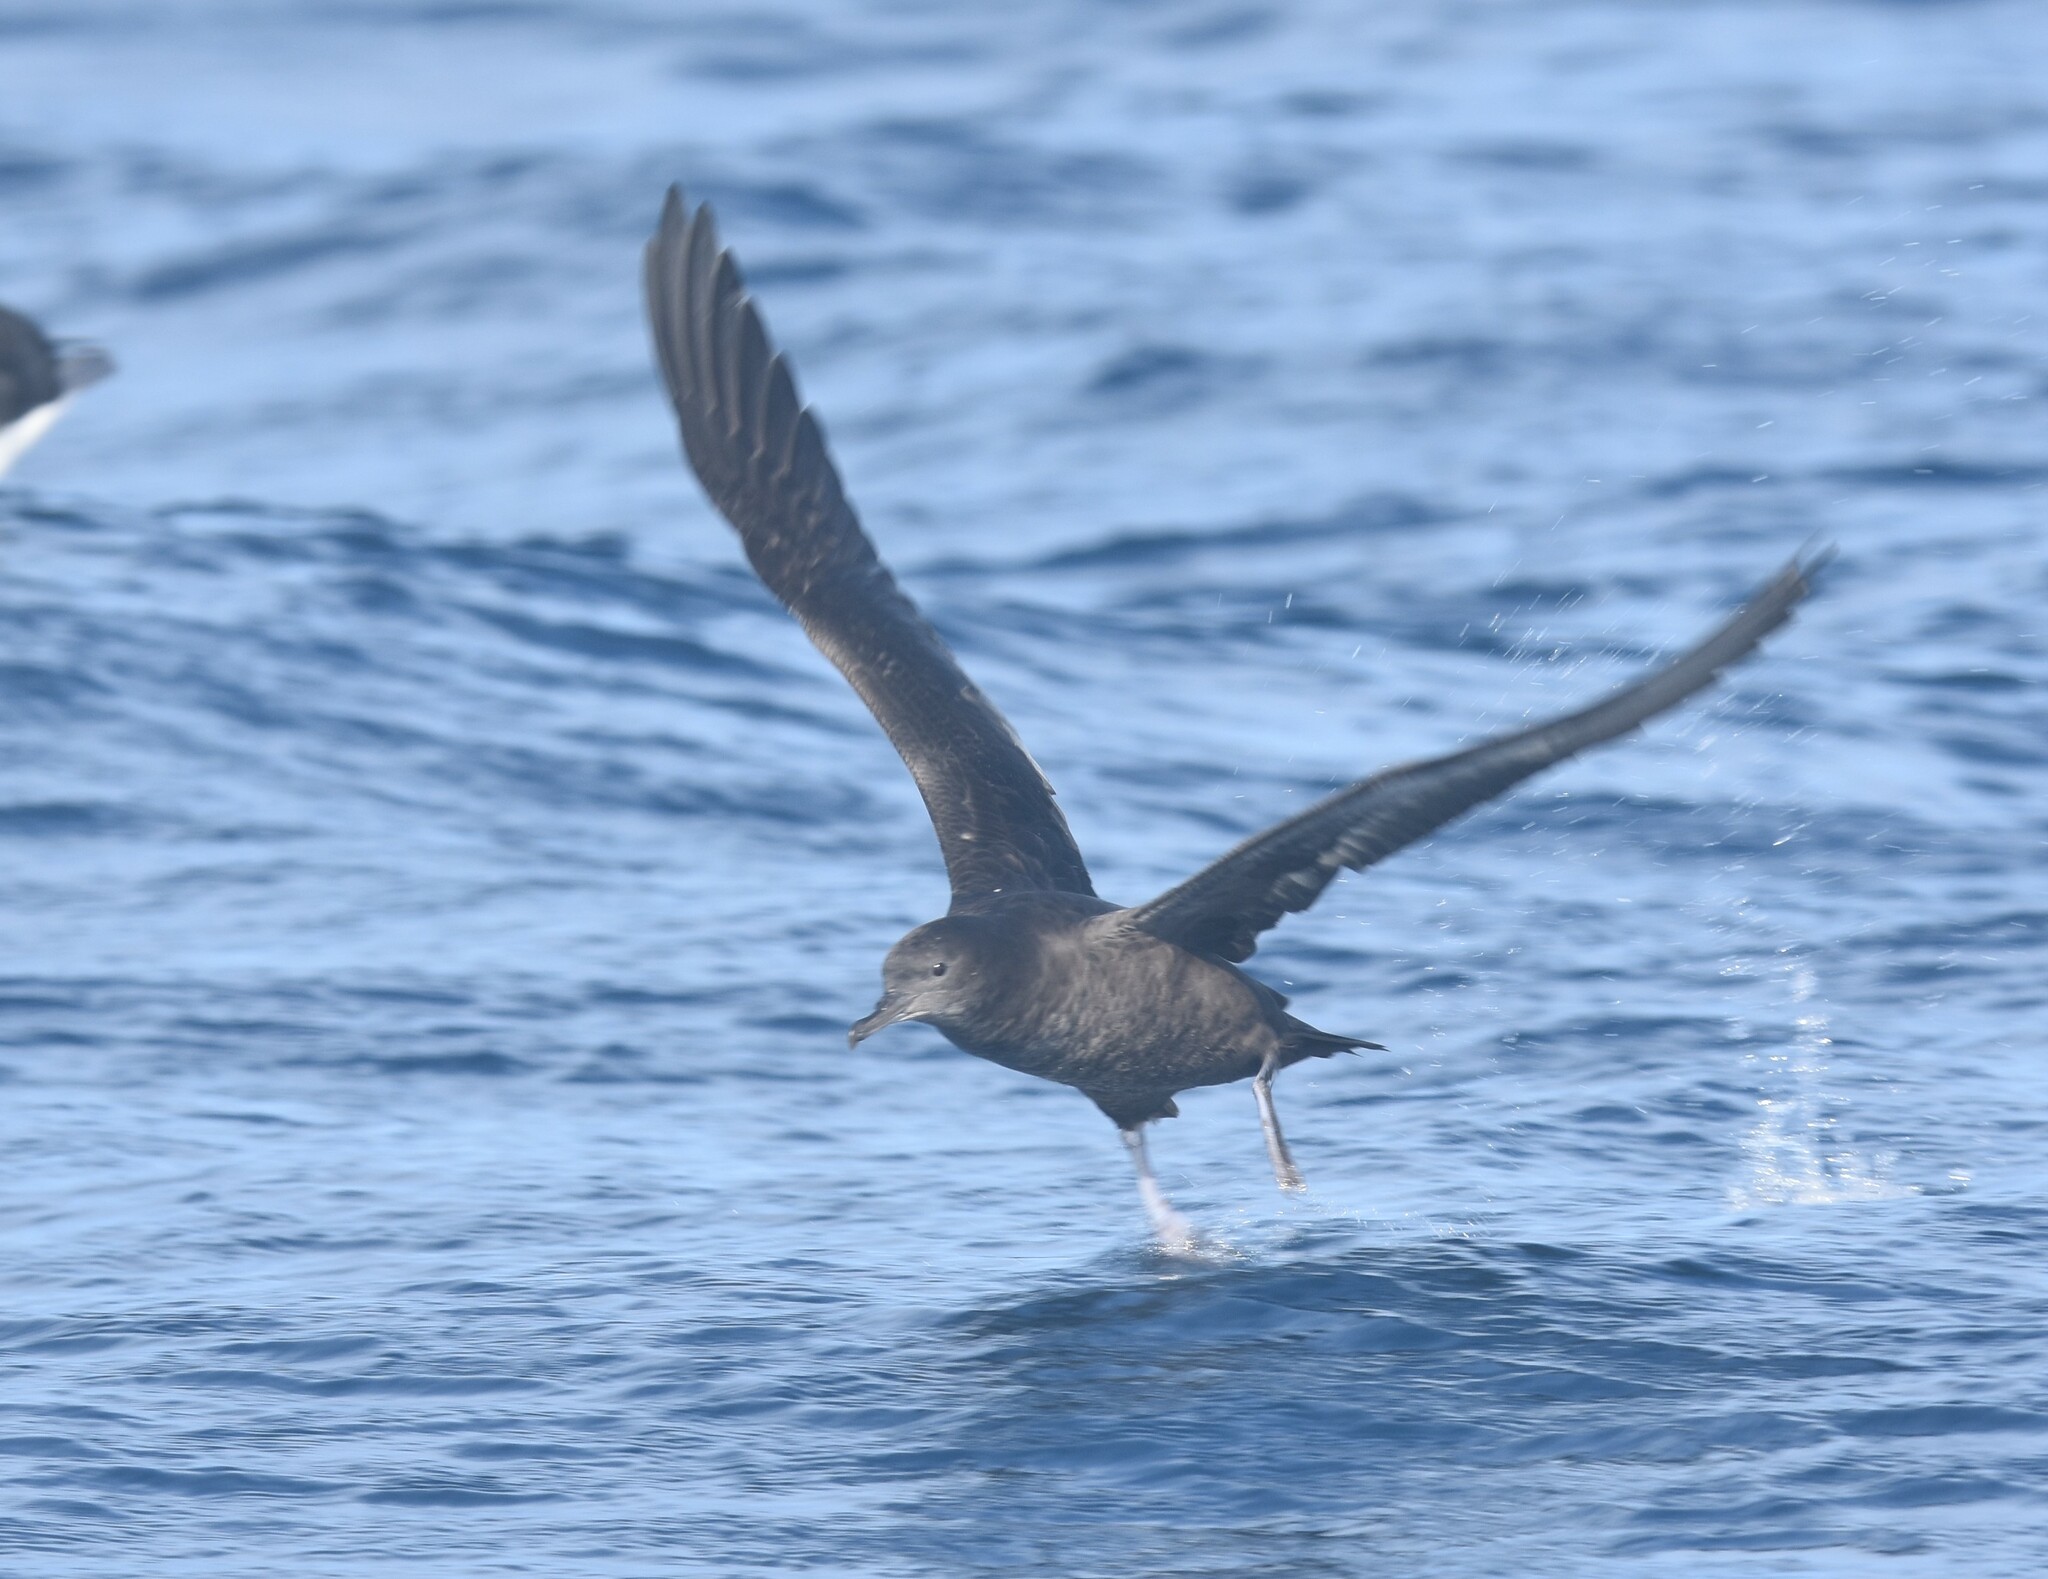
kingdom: Animalia
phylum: Chordata
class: Aves
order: Procellariiformes
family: Procellariidae
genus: Puffinus
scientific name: Puffinus griseus
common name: Sooty shearwater
